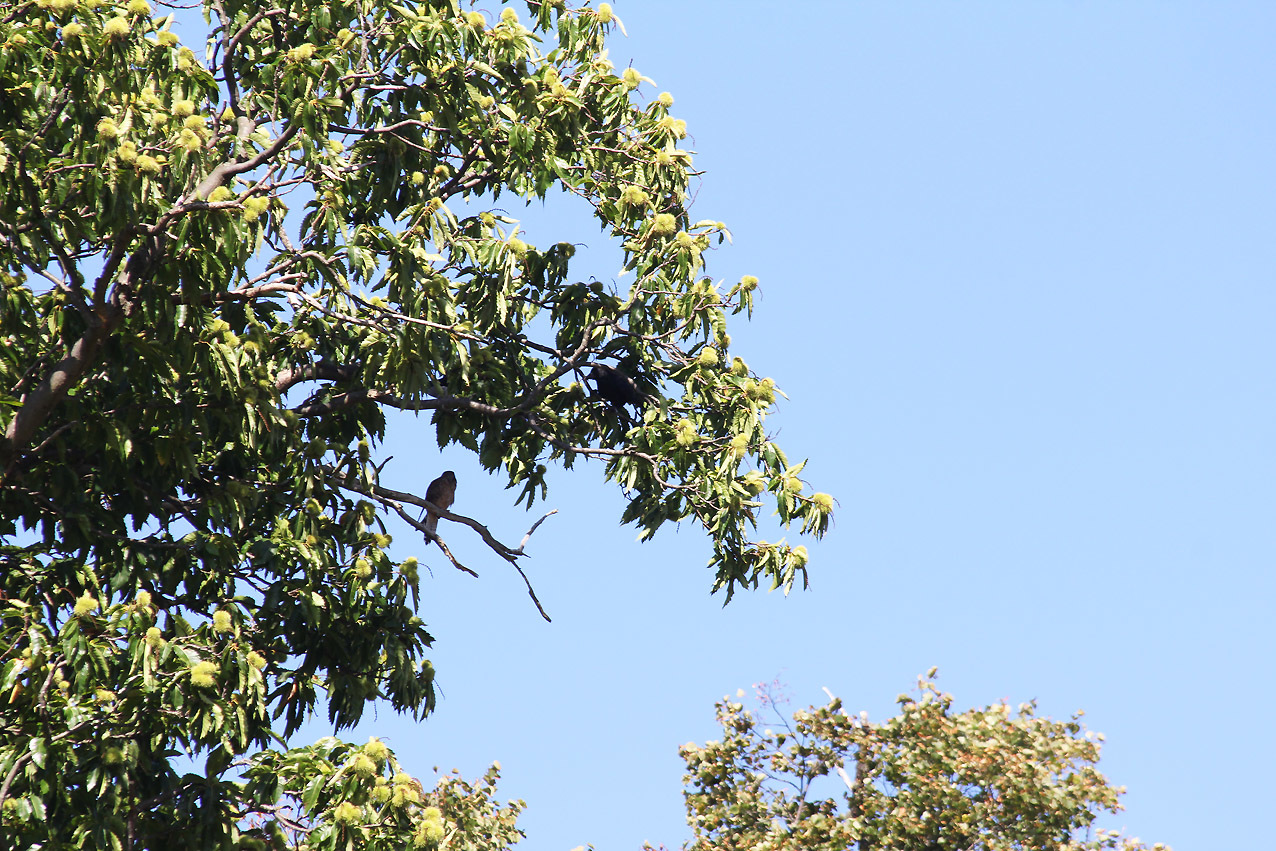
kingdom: Animalia
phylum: Chordata
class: Aves
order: Falconiformes
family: Falconidae
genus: Falco
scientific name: Falco tinnunculus
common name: Common kestrel
